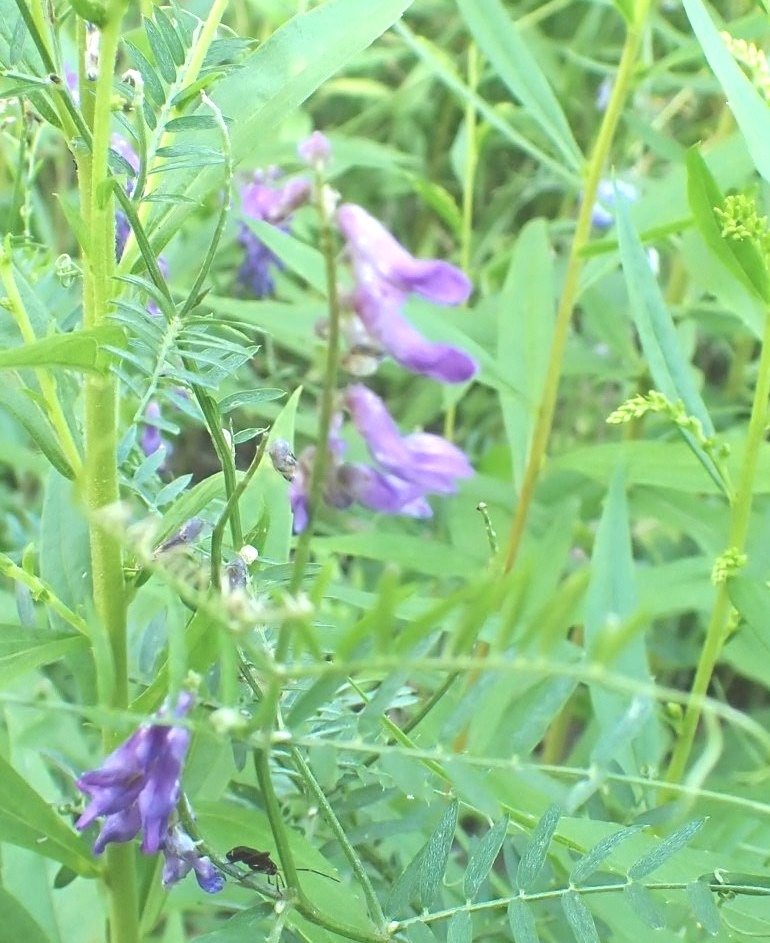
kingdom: Plantae
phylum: Tracheophyta
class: Magnoliopsida
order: Fabales
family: Fabaceae
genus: Vicia
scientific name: Vicia cracca
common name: Bird vetch
